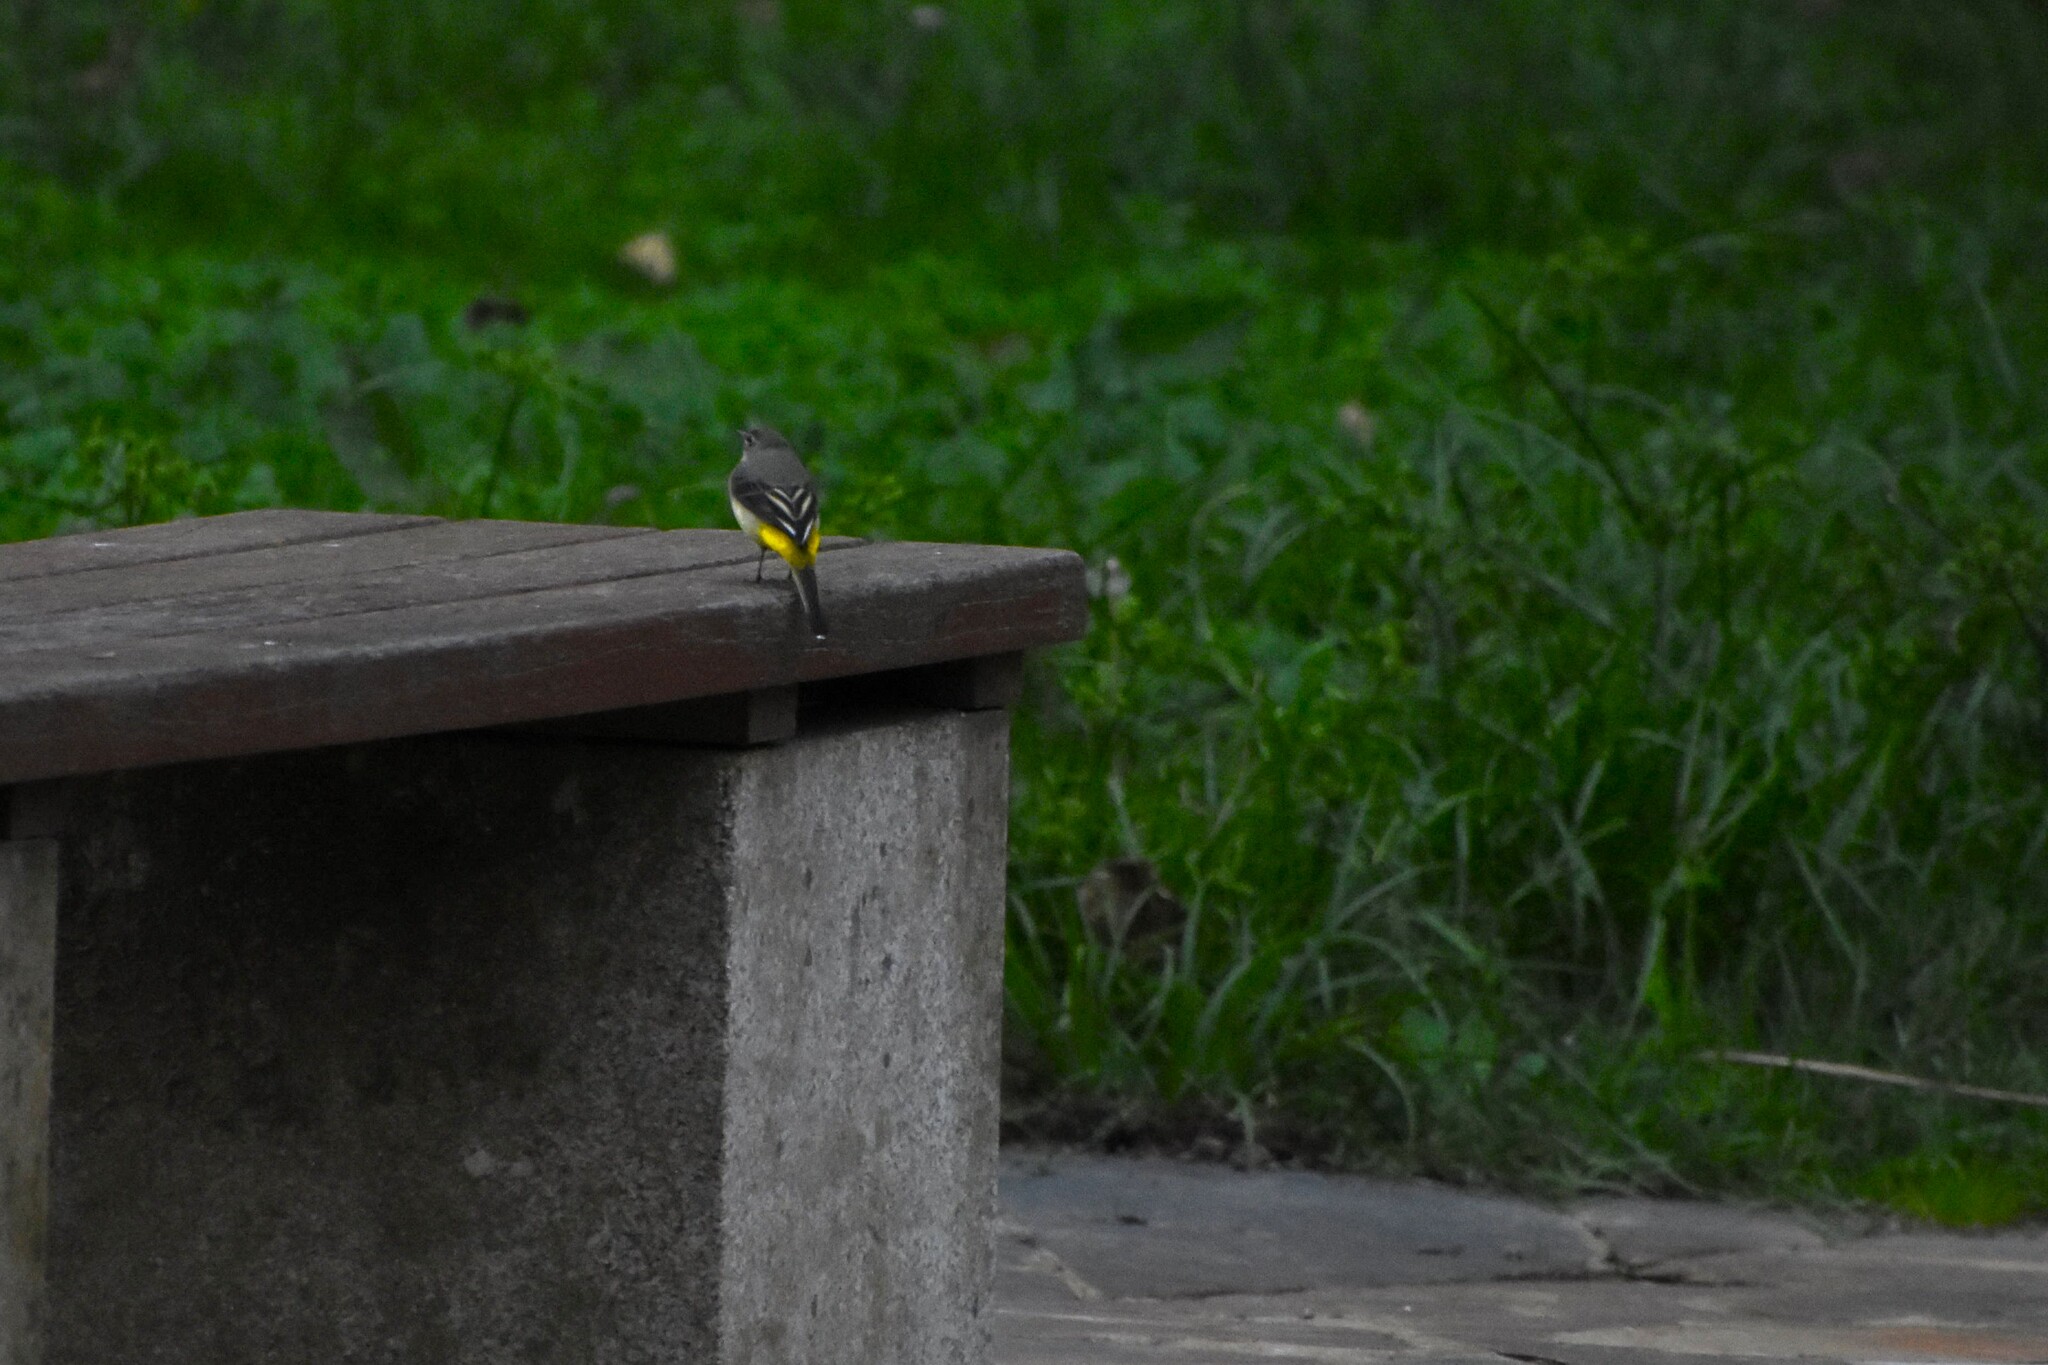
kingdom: Animalia
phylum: Chordata
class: Aves
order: Passeriformes
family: Motacillidae
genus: Motacilla
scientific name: Motacilla cinerea
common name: Grey wagtail
